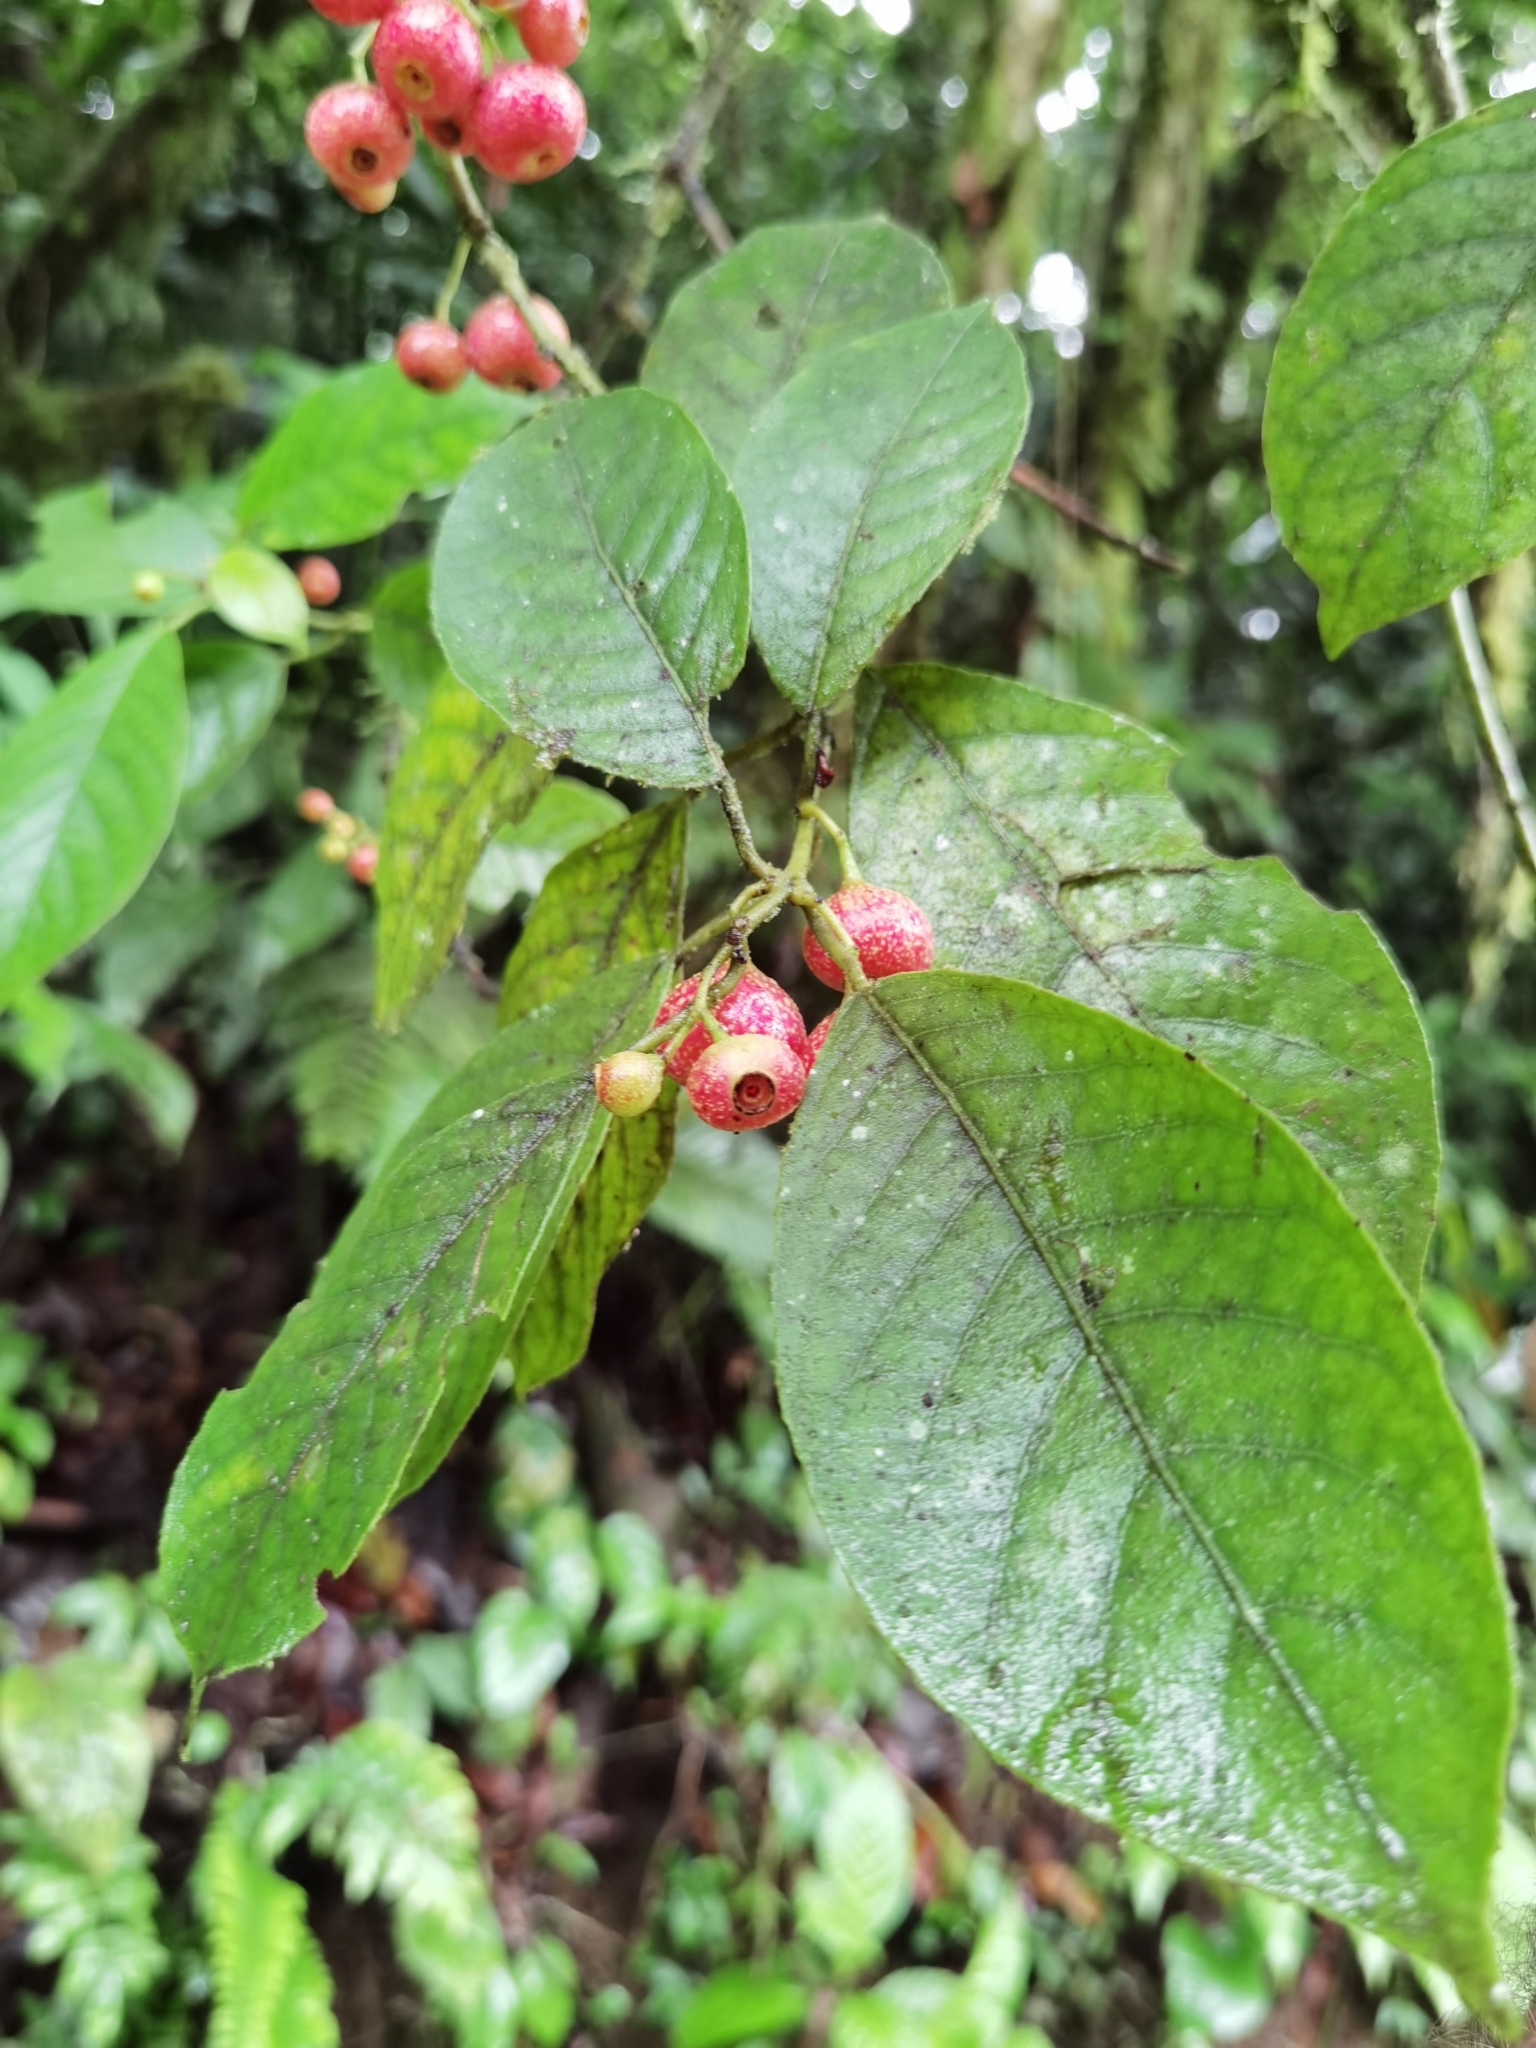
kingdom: Plantae
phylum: Tracheophyta
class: Magnoliopsida
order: Laurales
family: Siparunaceae
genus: Siparuna
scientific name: Siparuna thecaphora
